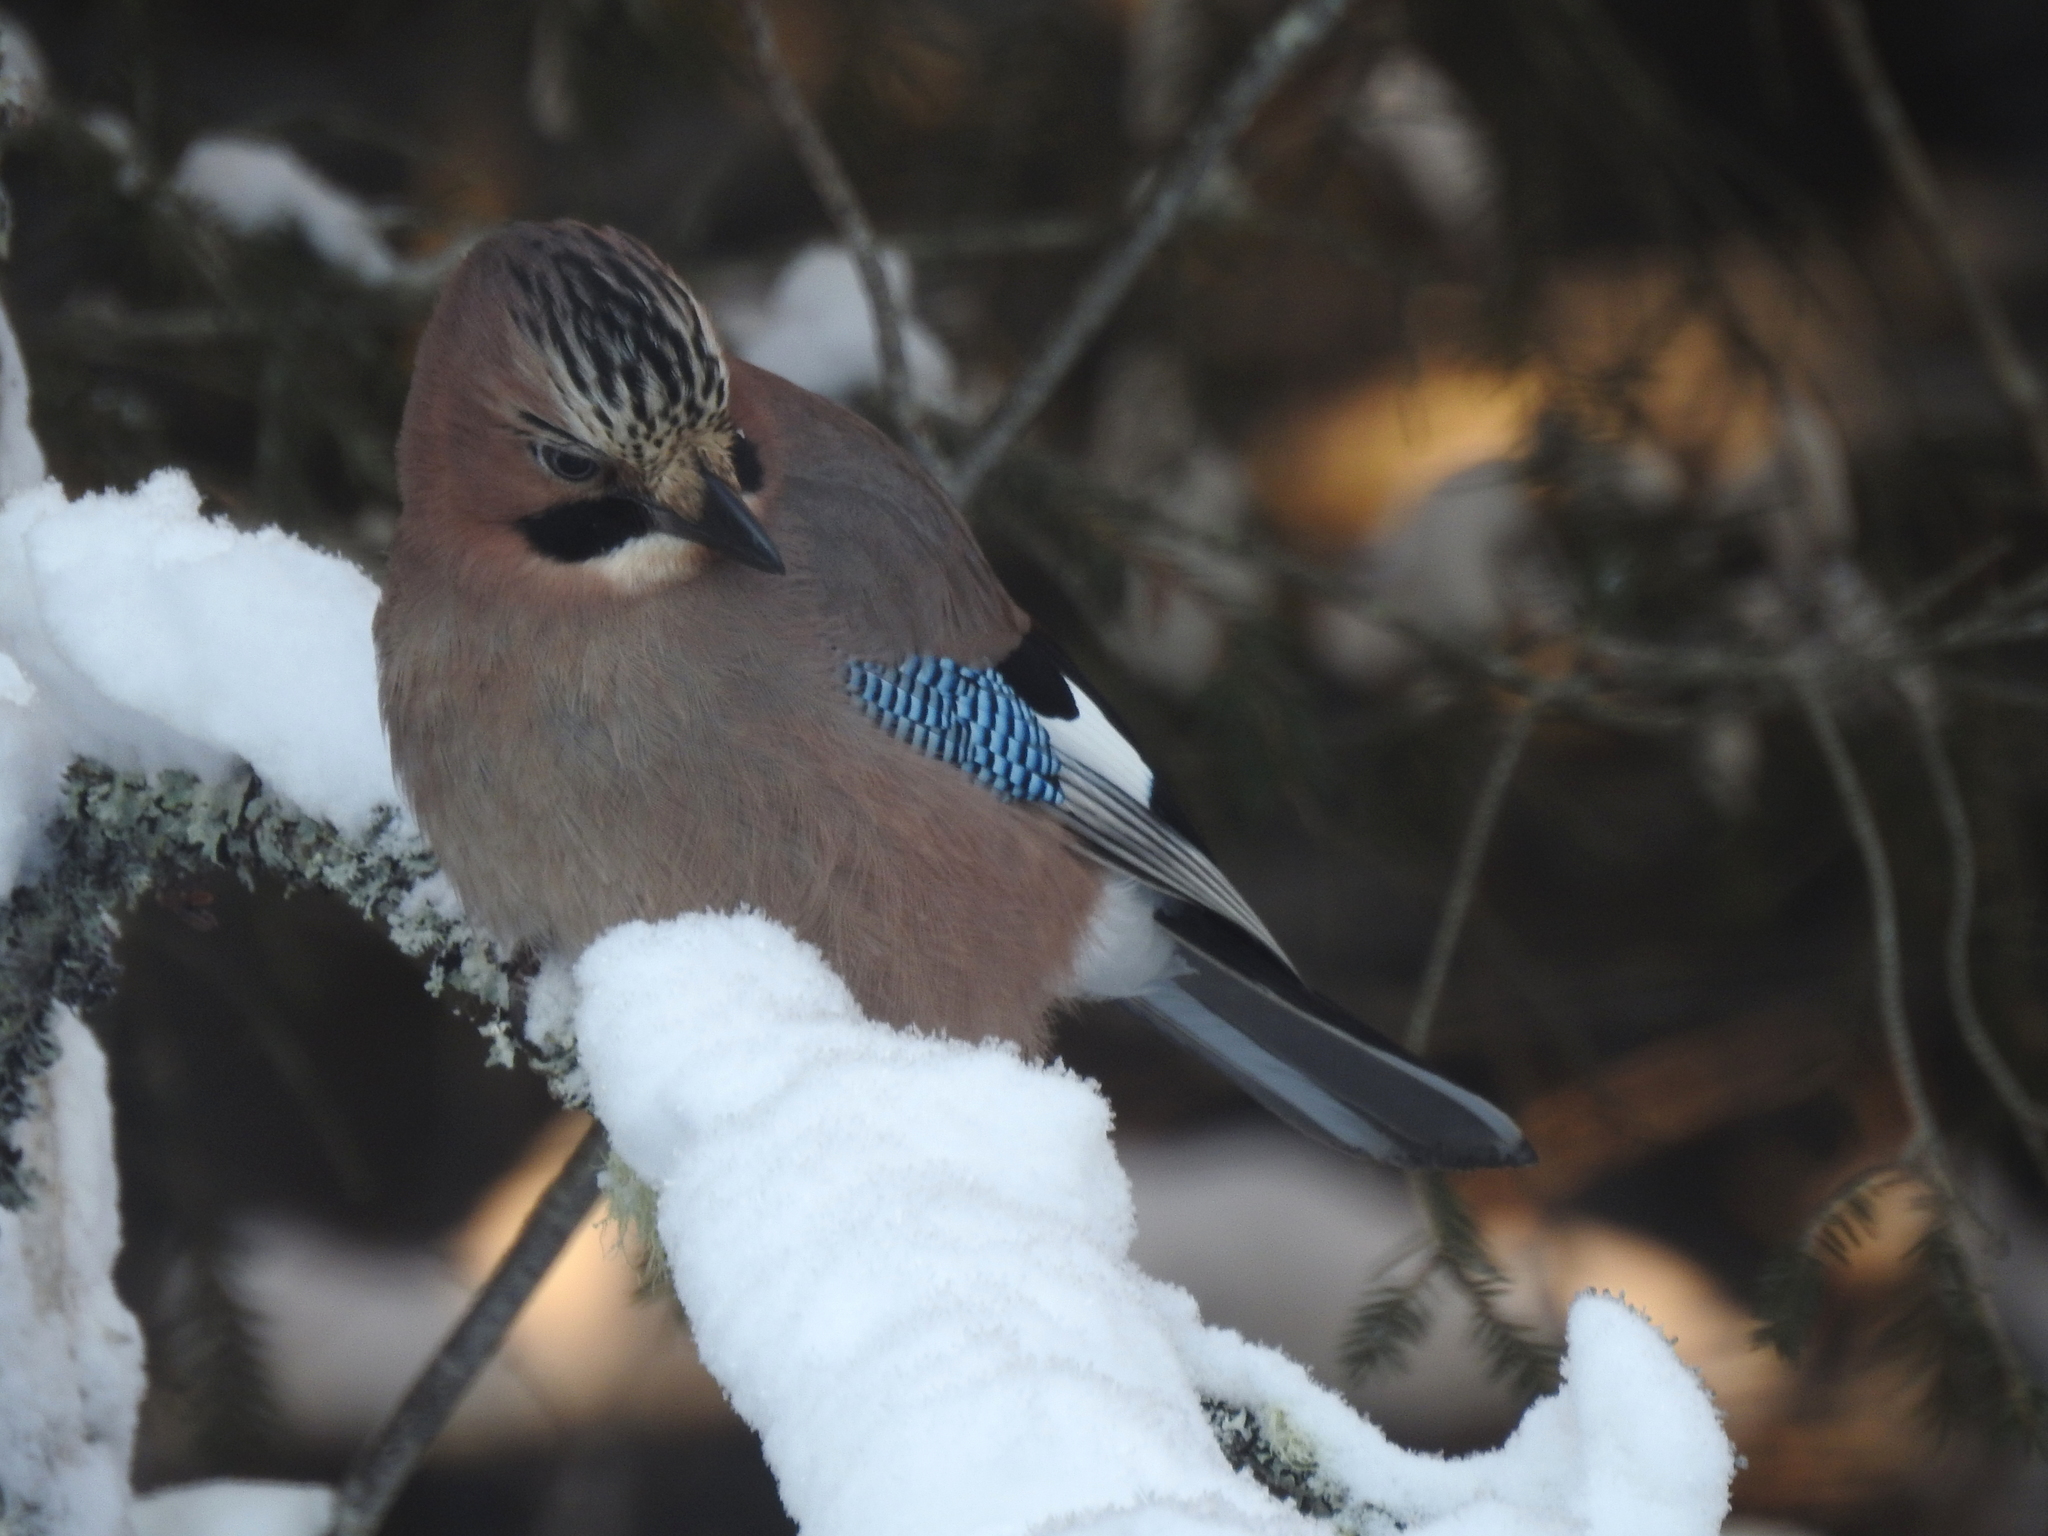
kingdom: Animalia
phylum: Chordata
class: Aves
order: Passeriformes
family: Corvidae
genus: Garrulus
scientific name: Garrulus glandarius
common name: Eurasian jay
